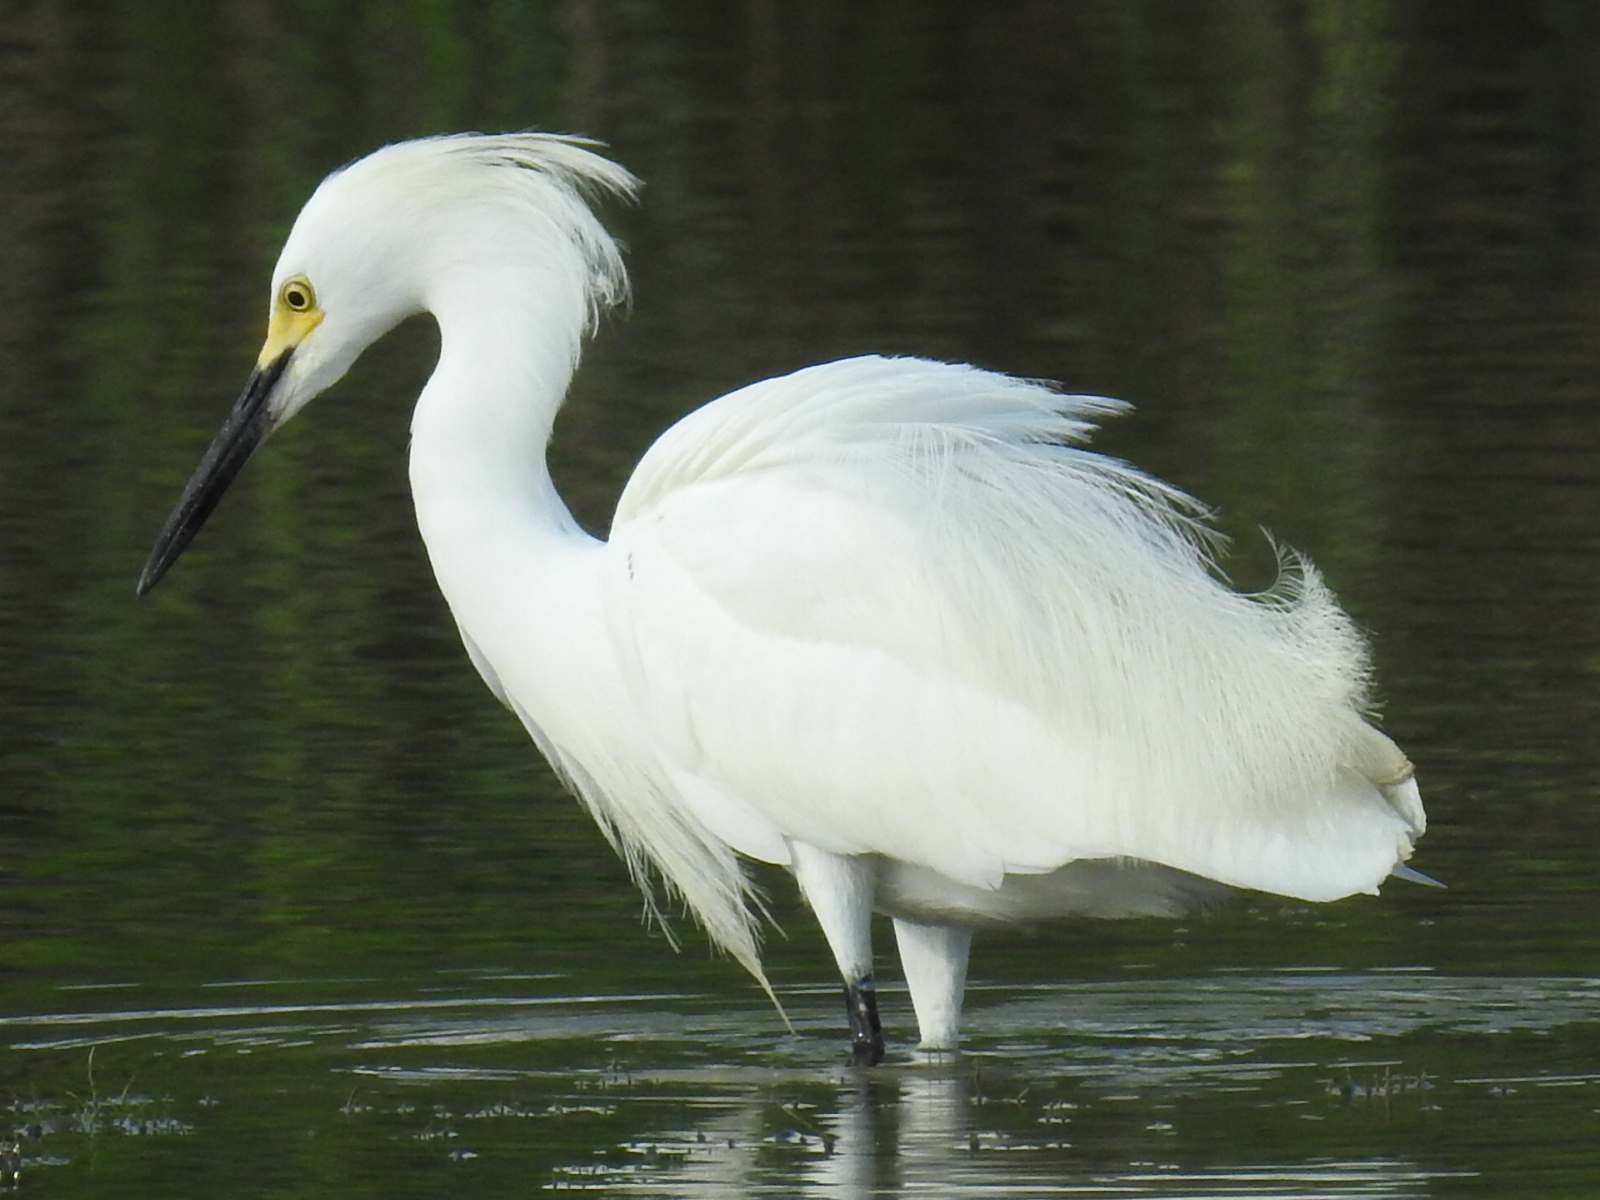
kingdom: Animalia
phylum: Chordata
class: Aves
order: Pelecaniformes
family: Ardeidae
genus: Egretta
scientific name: Egretta thula
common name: Snowy egret
